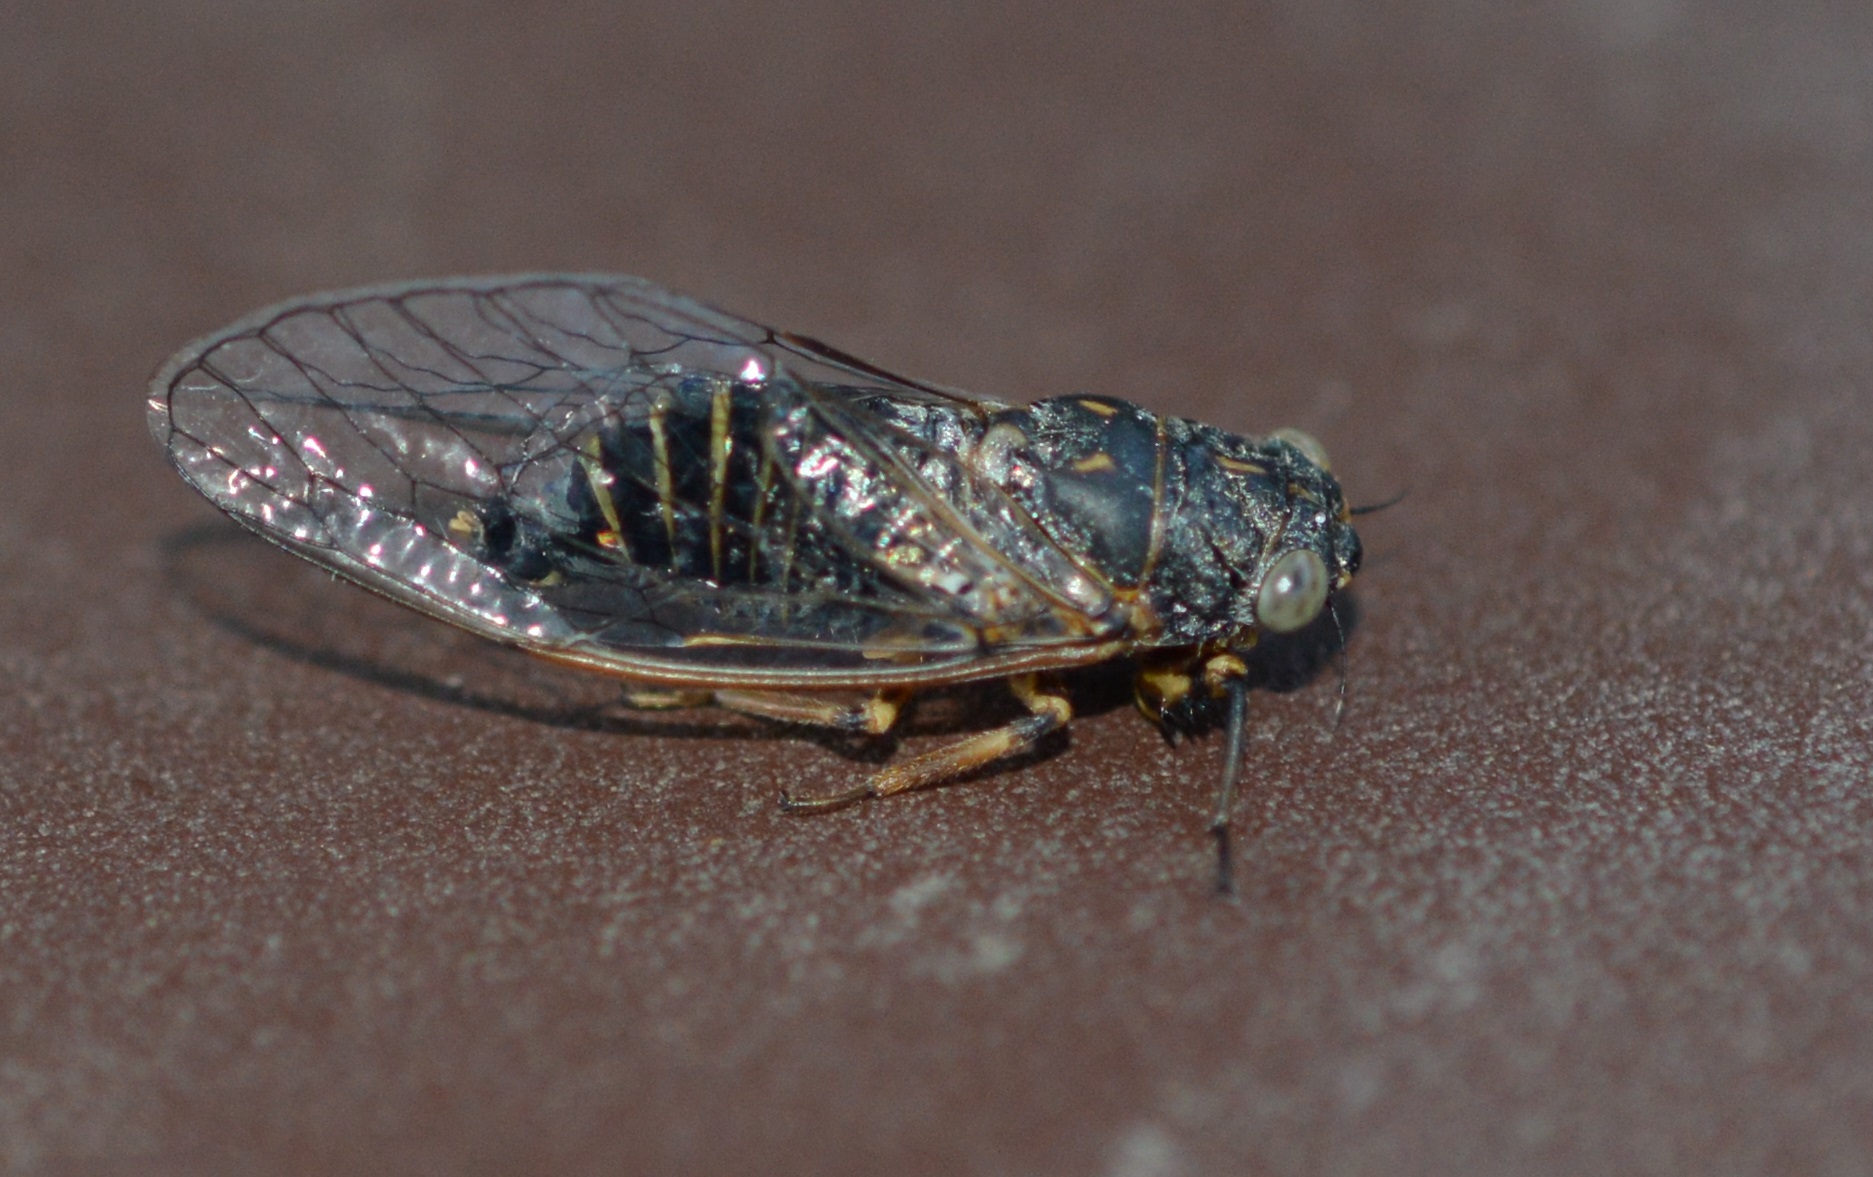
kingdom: Animalia
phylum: Arthropoda
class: Insecta
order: Hemiptera
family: Cicadidae
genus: Tettigettula
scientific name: Tettigettula pygmea
